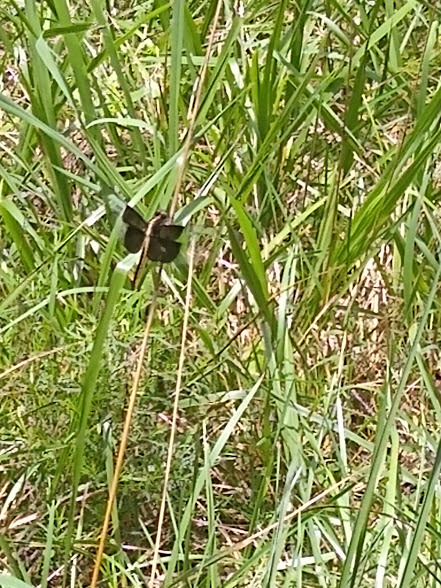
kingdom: Animalia
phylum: Arthropoda
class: Insecta
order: Odonata
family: Libellulidae
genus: Libellula
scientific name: Libellula luctuosa
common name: Widow skimmer
